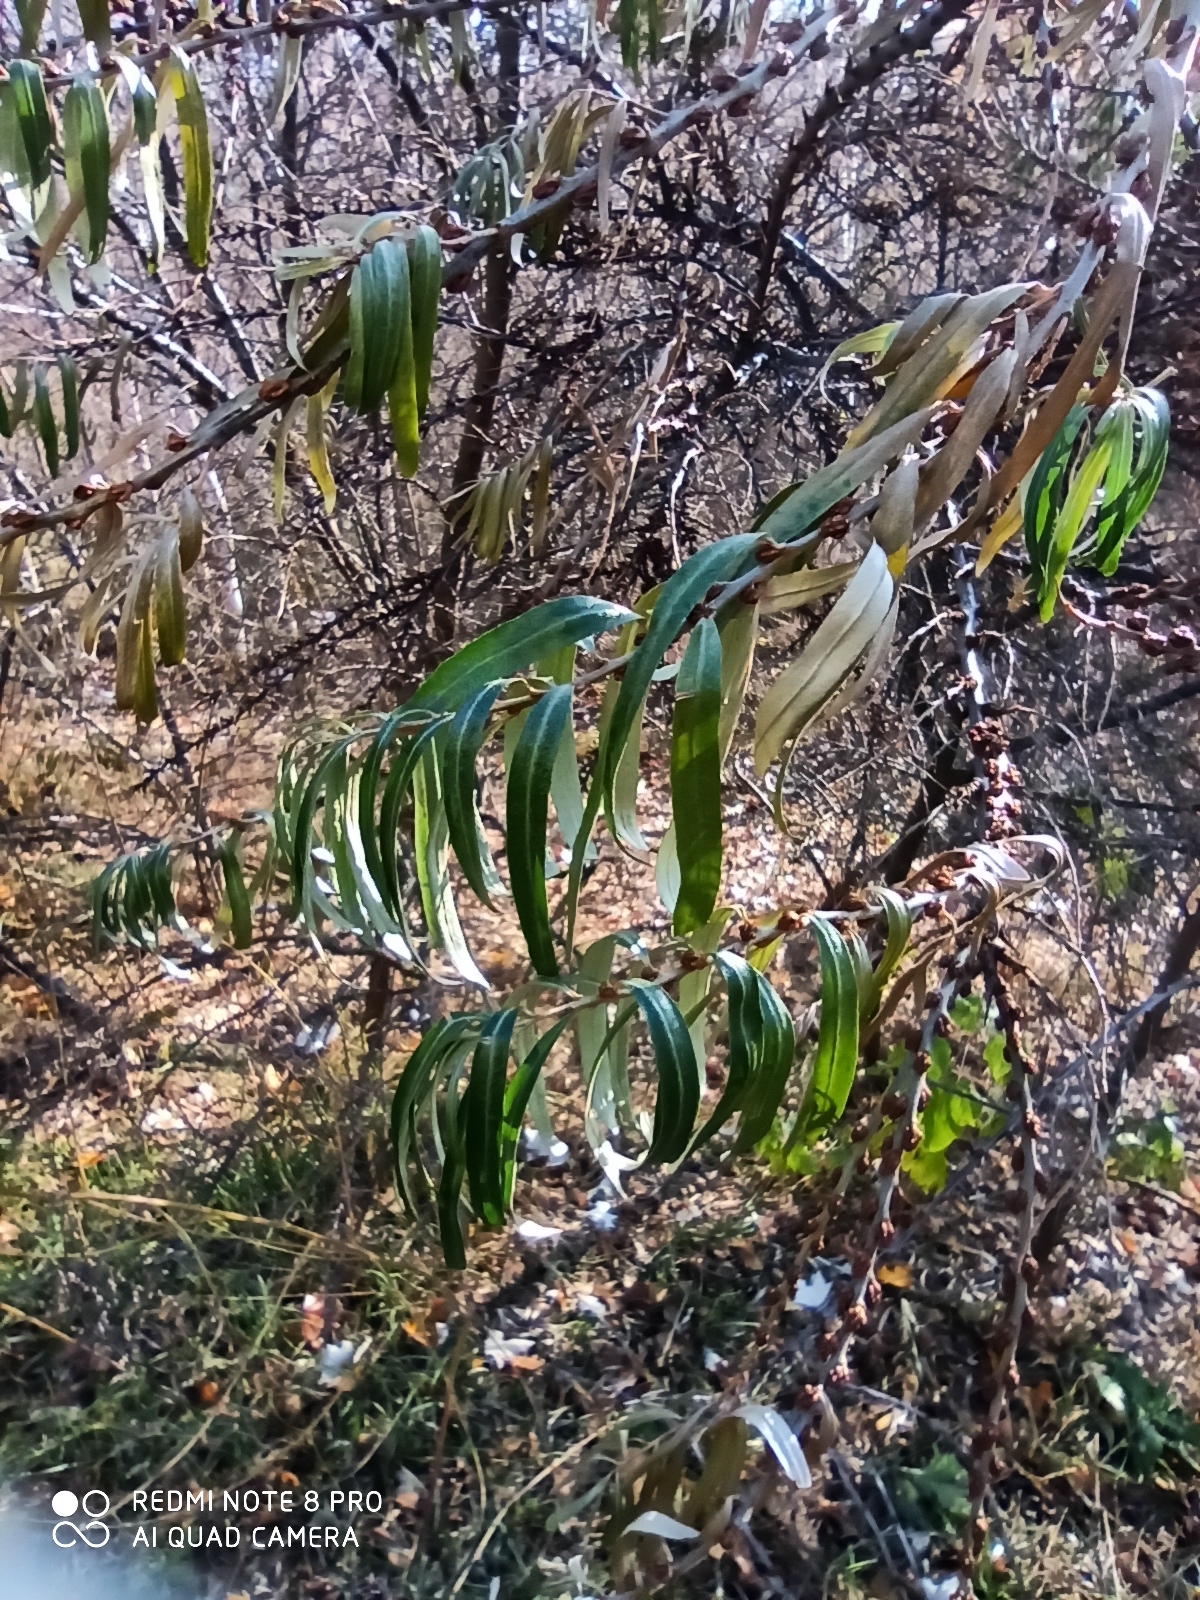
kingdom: Plantae
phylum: Tracheophyta
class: Magnoliopsida
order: Rosales
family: Elaeagnaceae
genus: Hippophae
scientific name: Hippophae rhamnoides
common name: Sea-buckthorn
